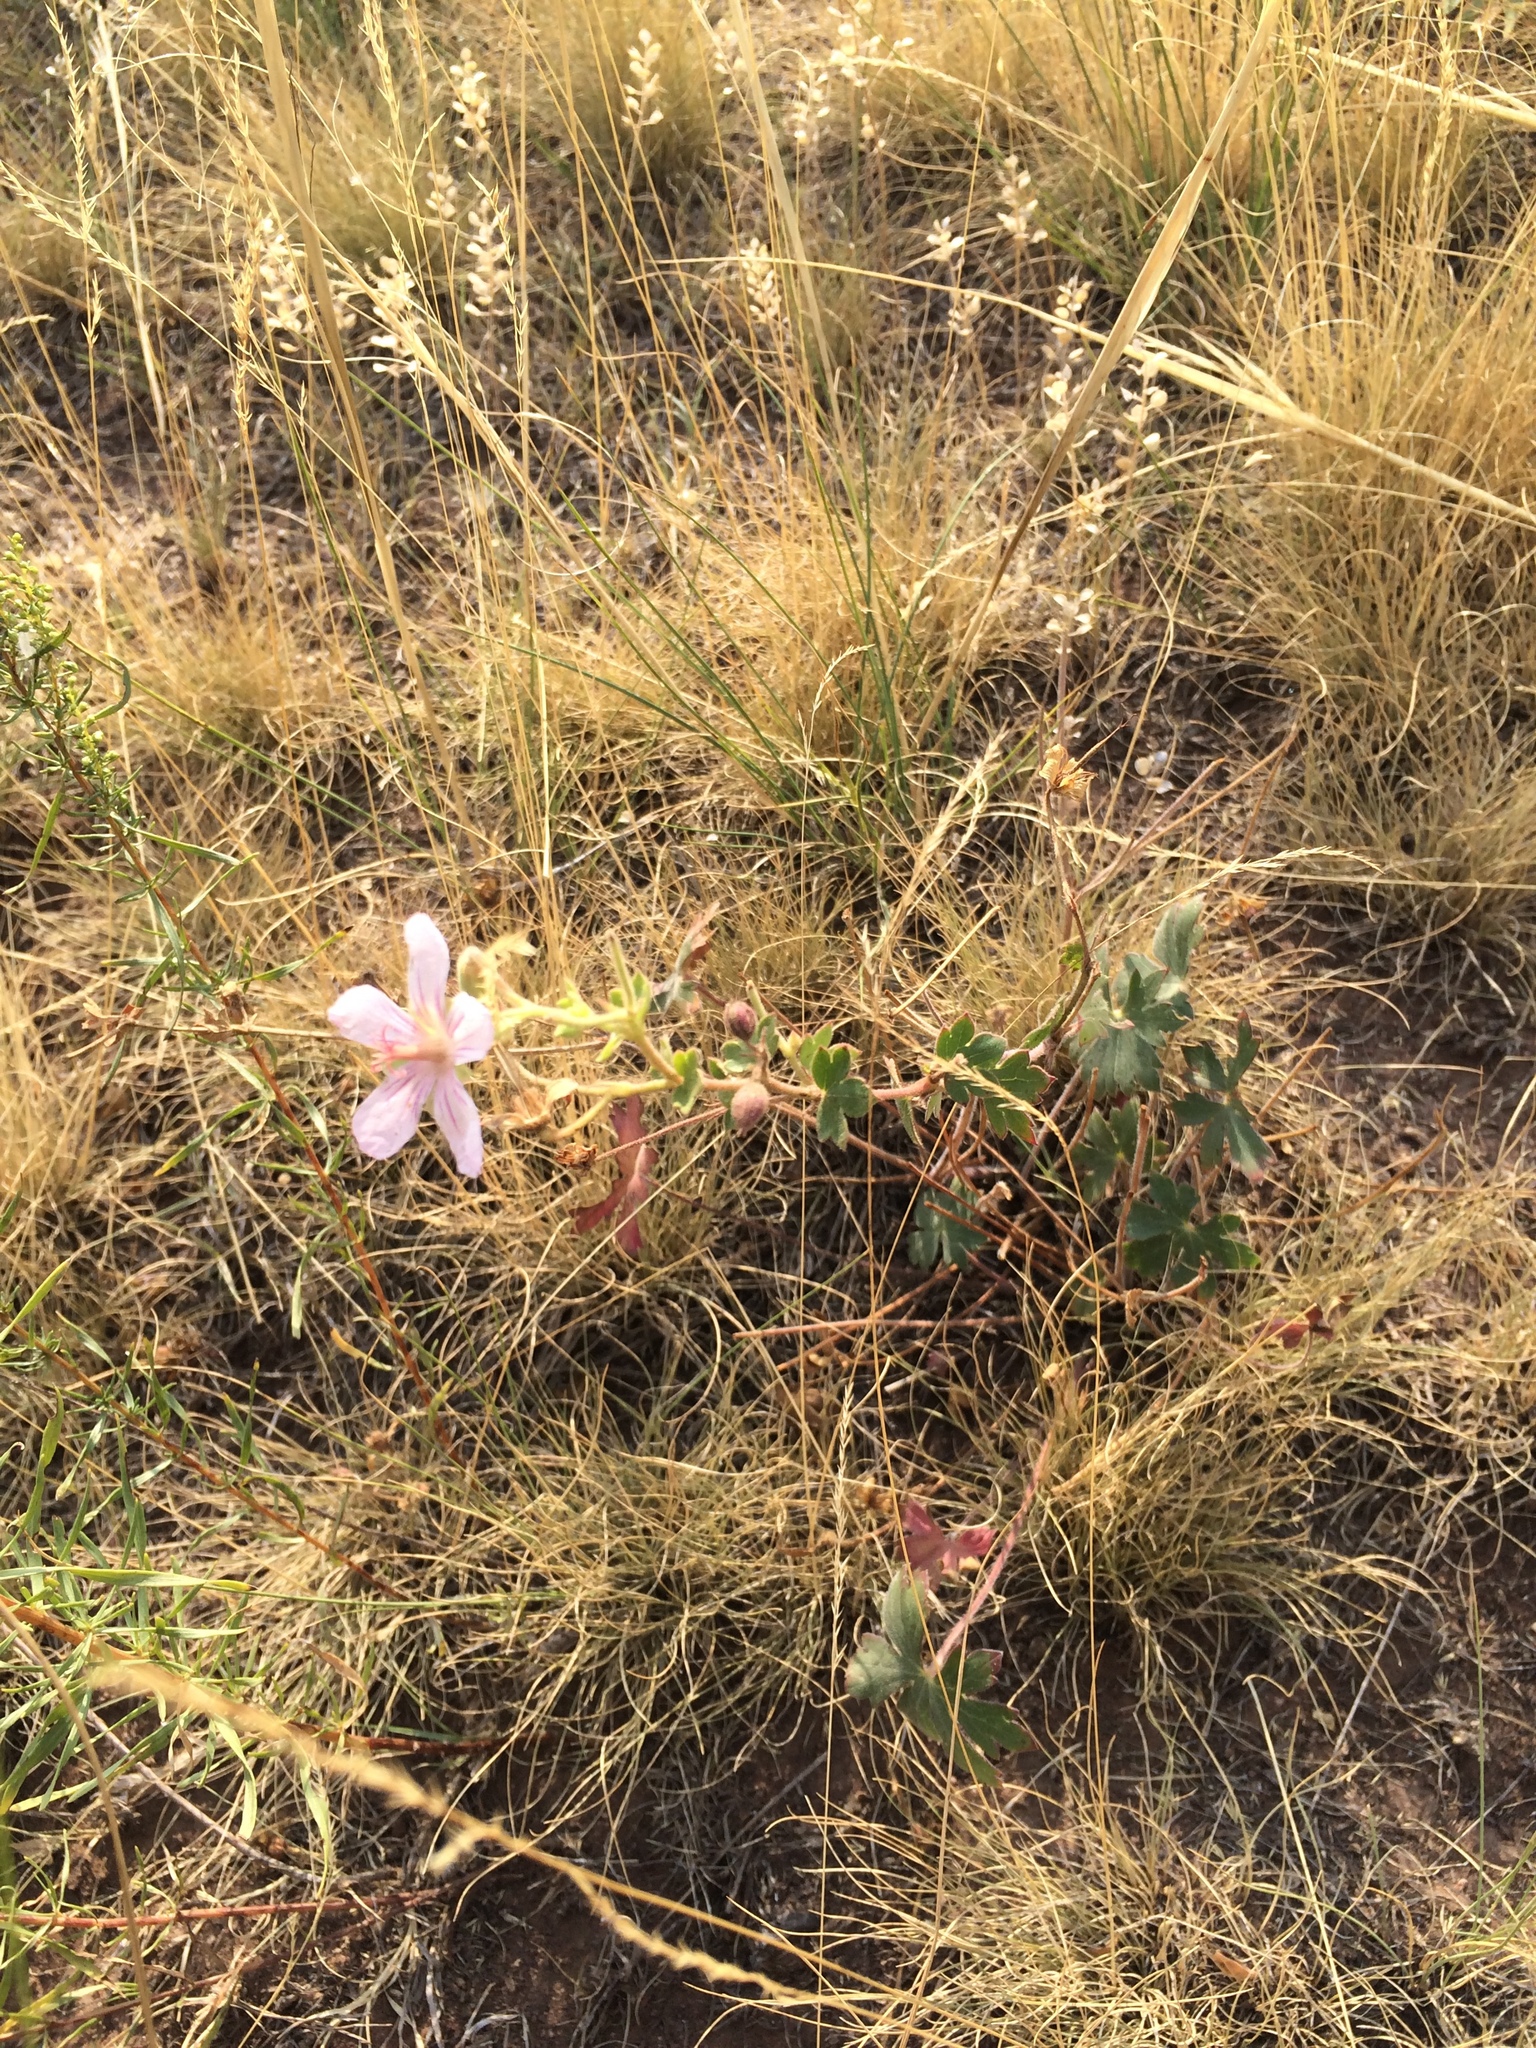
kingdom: Plantae
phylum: Tracheophyta
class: Magnoliopsida
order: Geraniales
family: Geraniaceae
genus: Geranium
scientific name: Geranium richardsonii
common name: Richardson's crane's-bill
